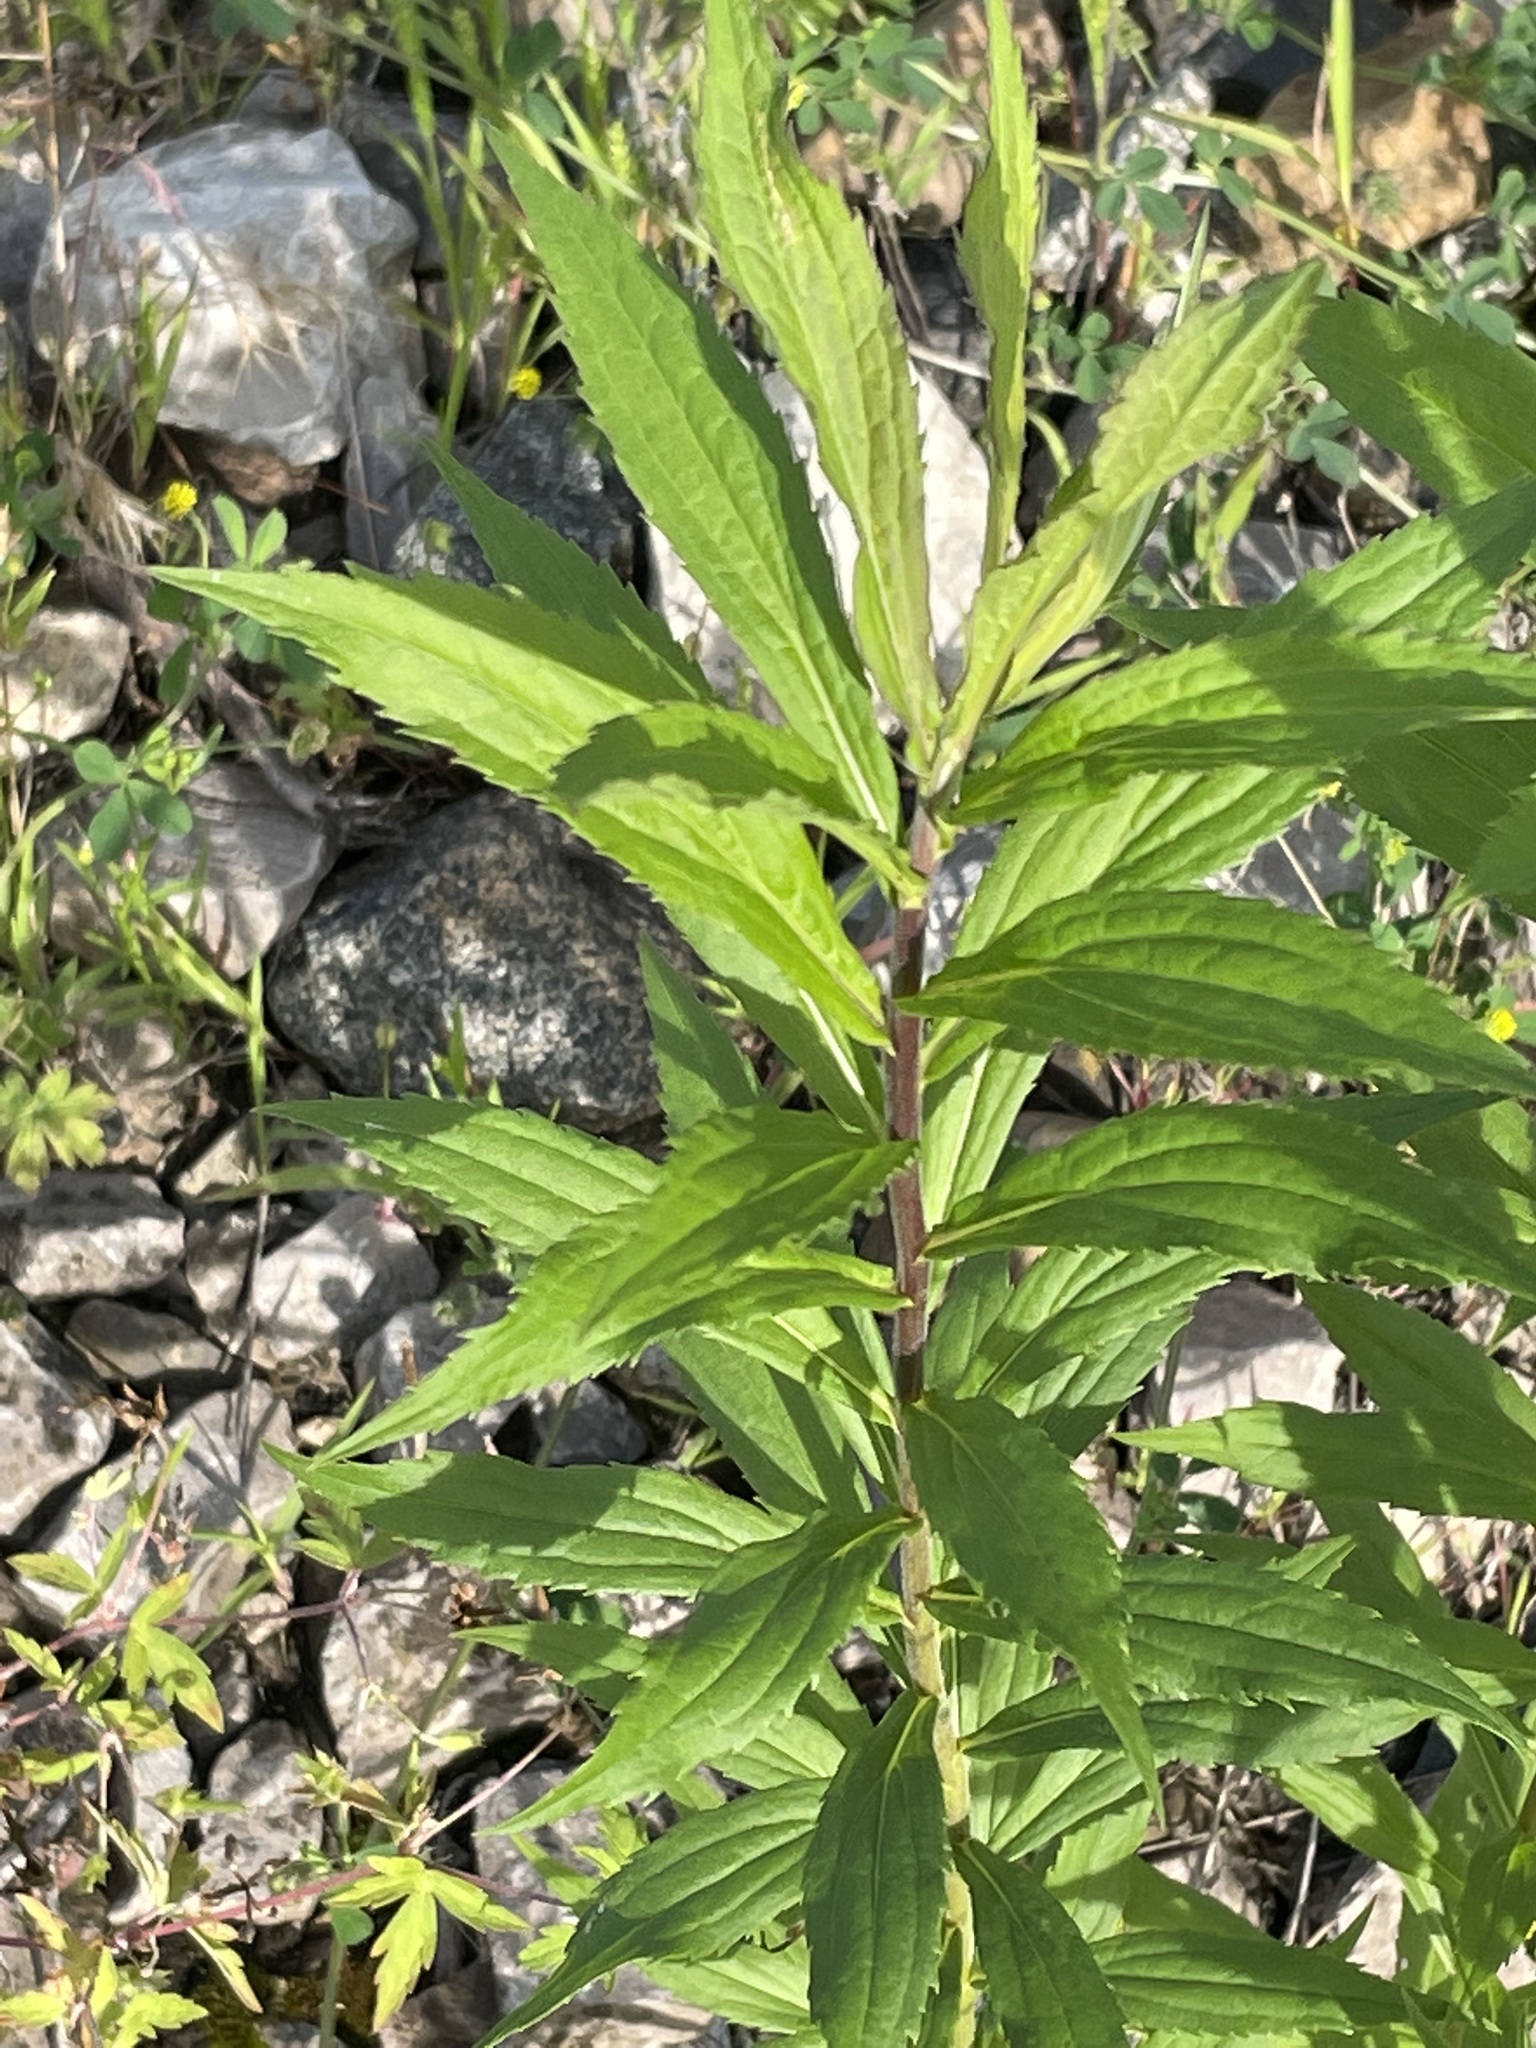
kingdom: Plantae
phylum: Tracheophyta
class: Magnoliopsida
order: Asterales
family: Asteraceae
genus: Solidago
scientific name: Solidago canadensis
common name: Canada goldenrod
